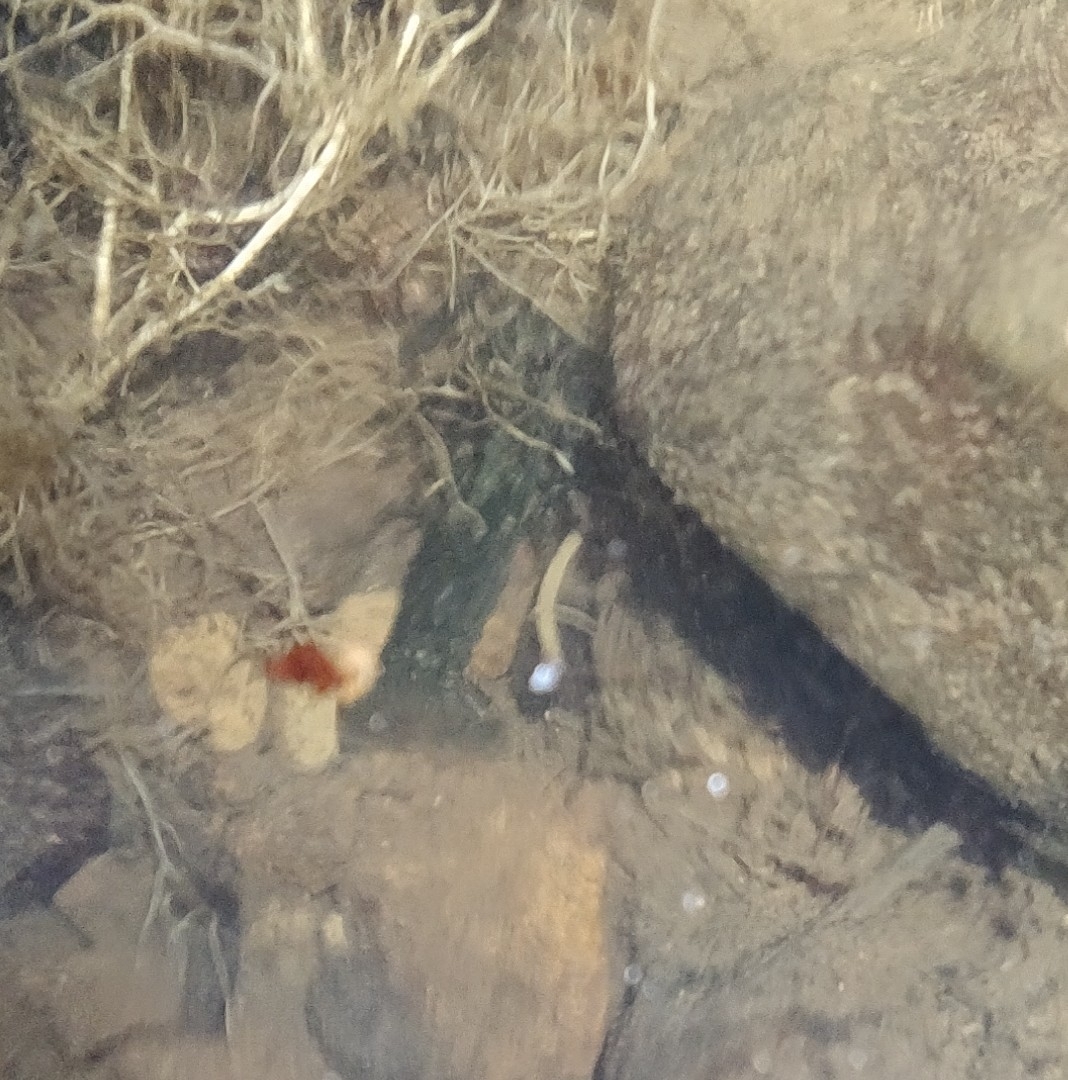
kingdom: Animalia
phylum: Arthropoda
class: Malacostraca
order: Decapoda
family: Parastacidae
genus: Paranephrops
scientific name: Paranephrops planifrons
